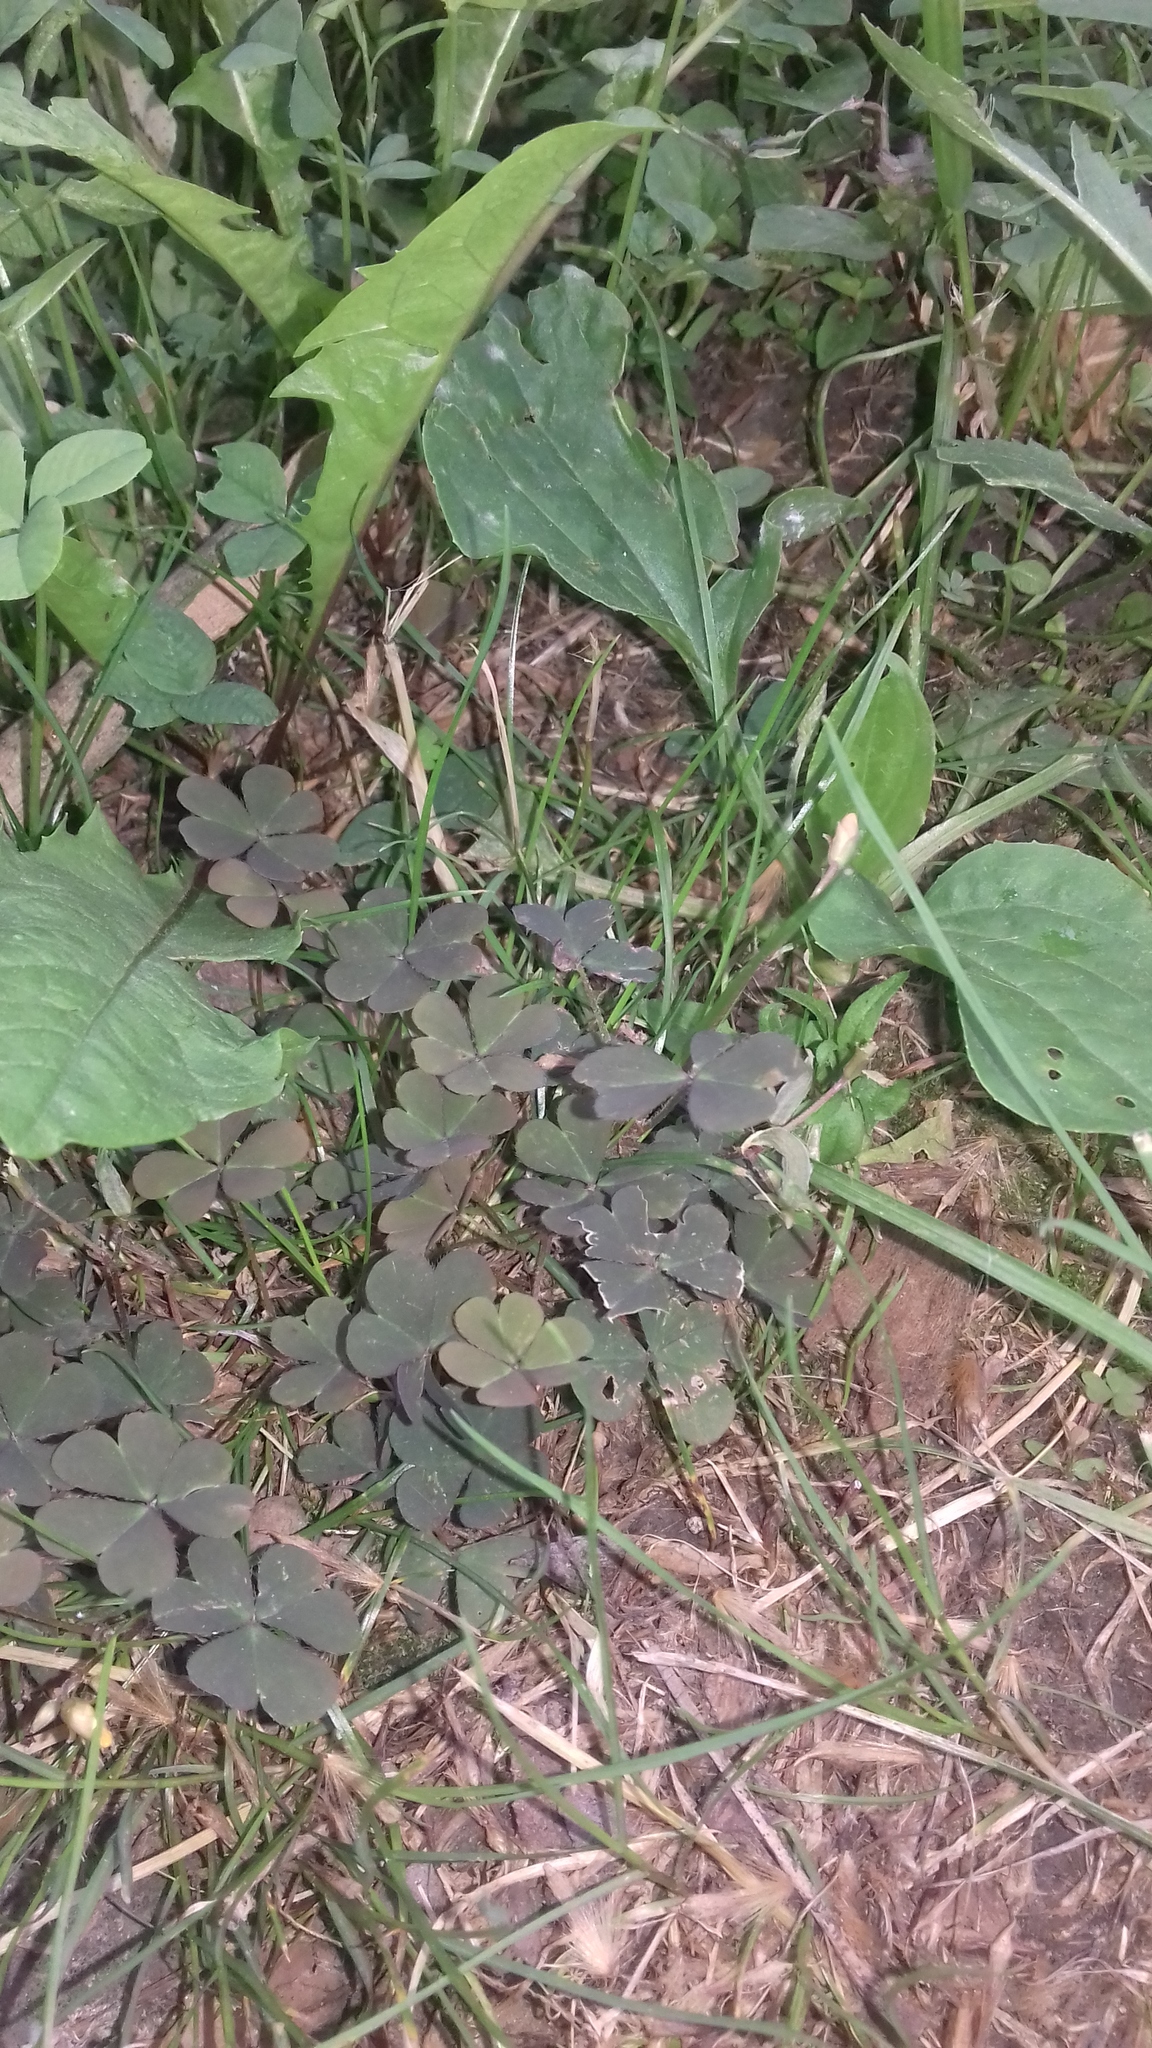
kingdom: Plantae
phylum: Tracheophyta
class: Magnoliopsida
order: Oxalidales
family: Oxalidaceae
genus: Oxalis
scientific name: Oxalis corniculata
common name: Procumbent yellow-sorrel
